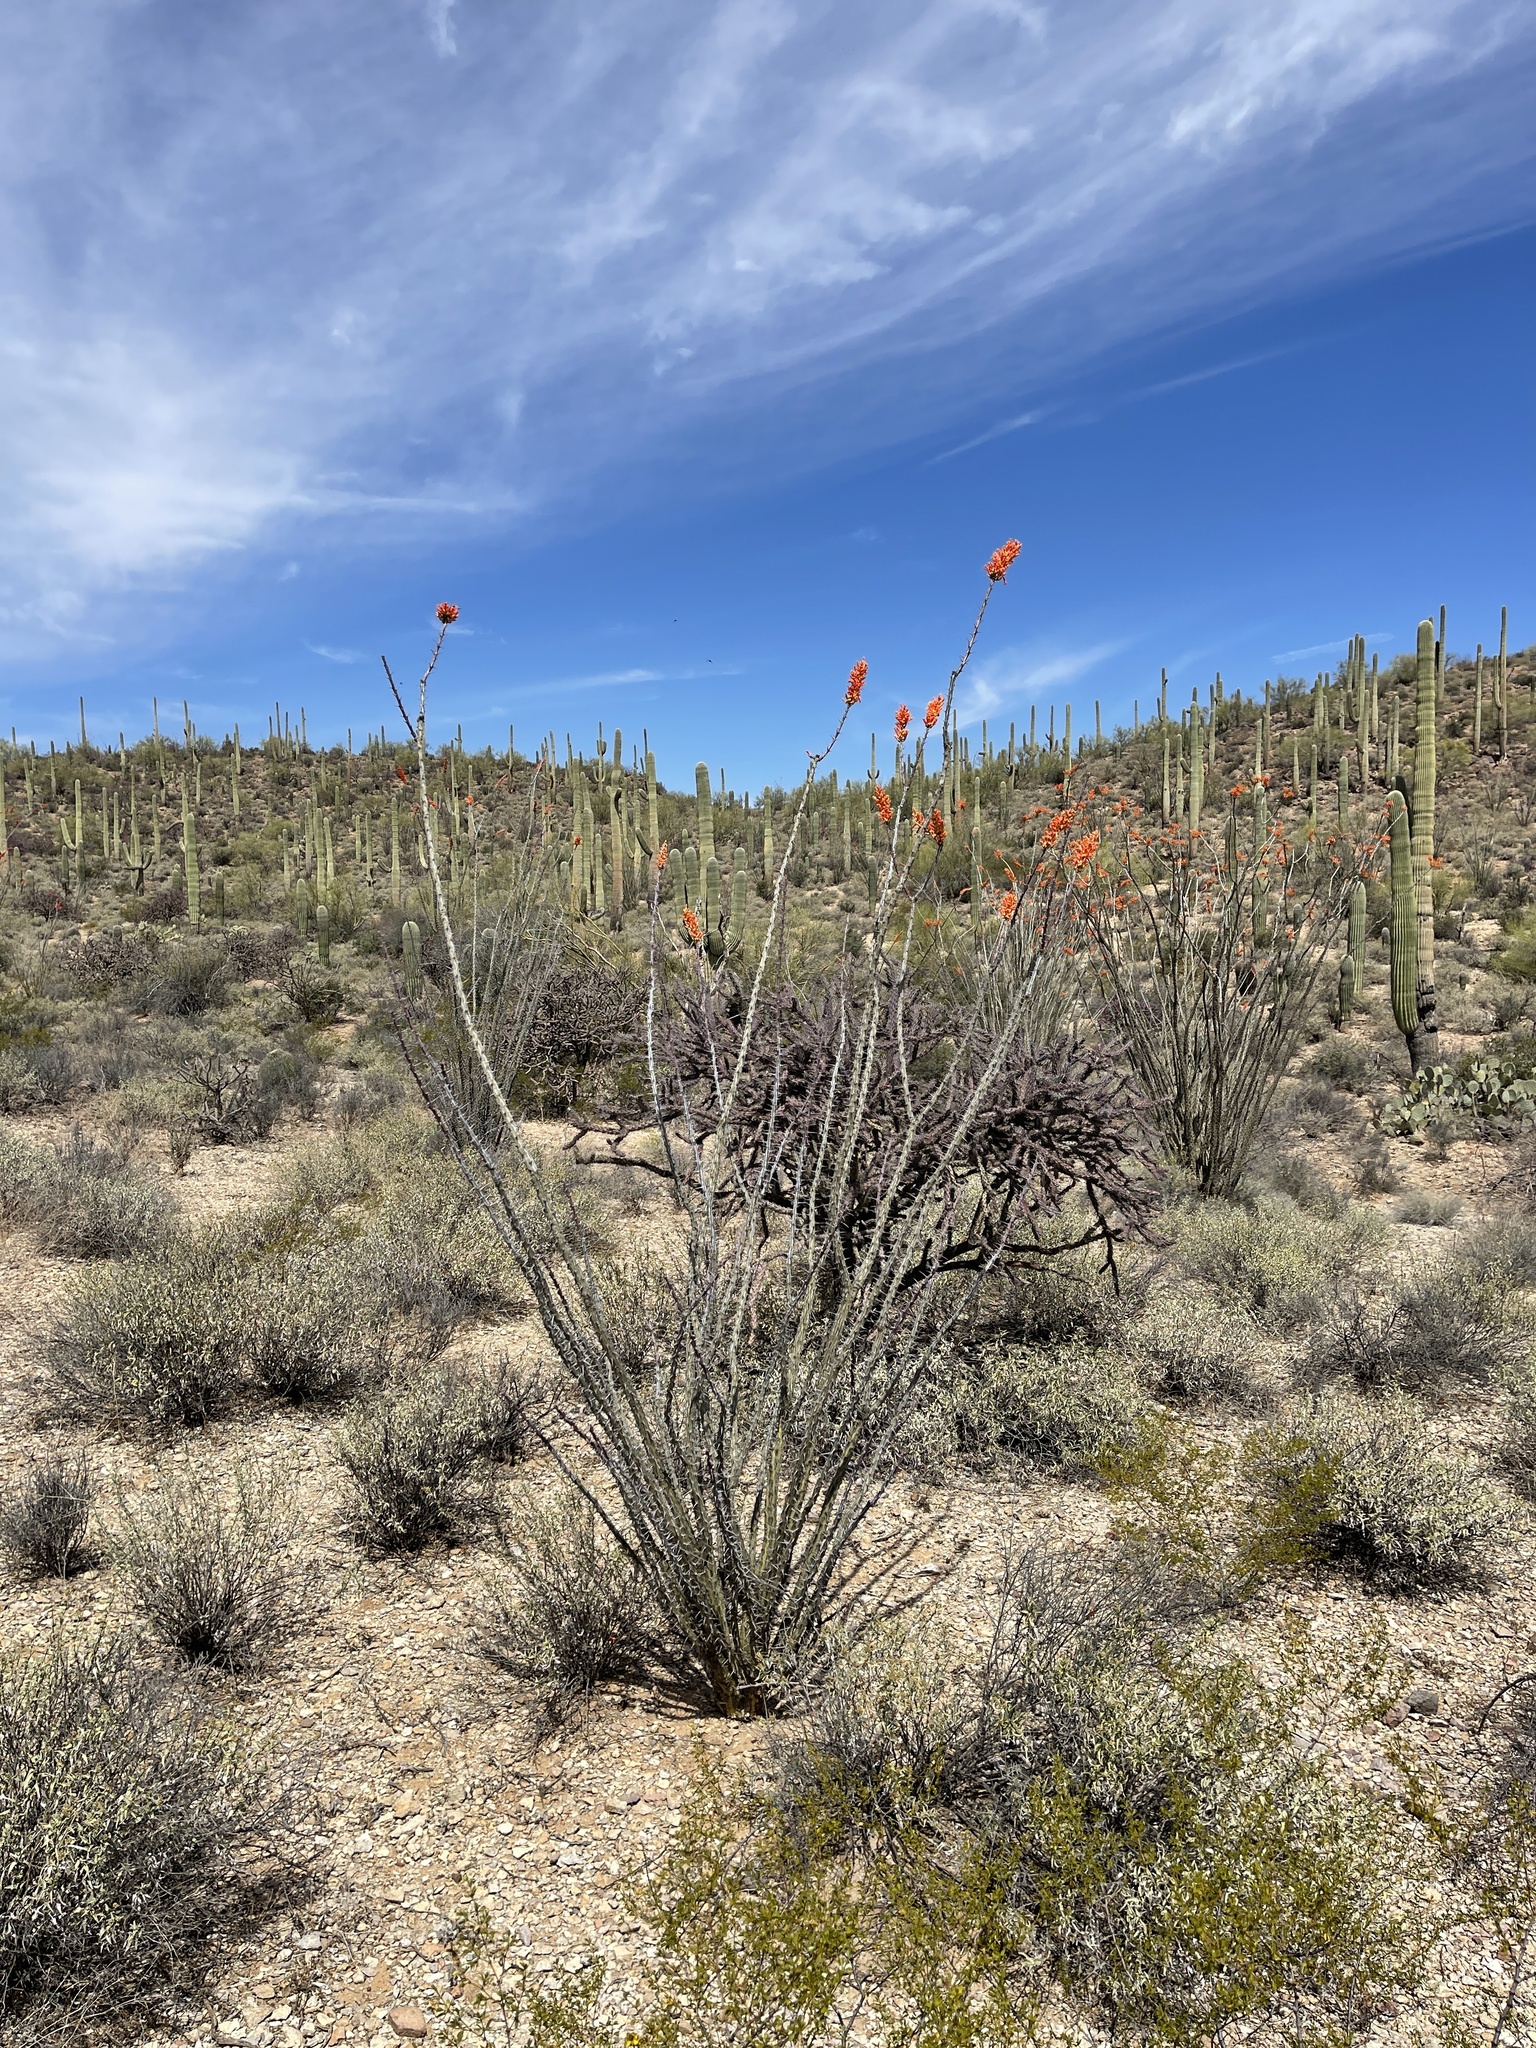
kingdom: Plantae
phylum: Tracheophyta
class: Magnoliopsida
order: Ericales
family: Fouquieriaceae
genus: Fouquieria
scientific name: Fouquieria splendens
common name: Vine-cactus
